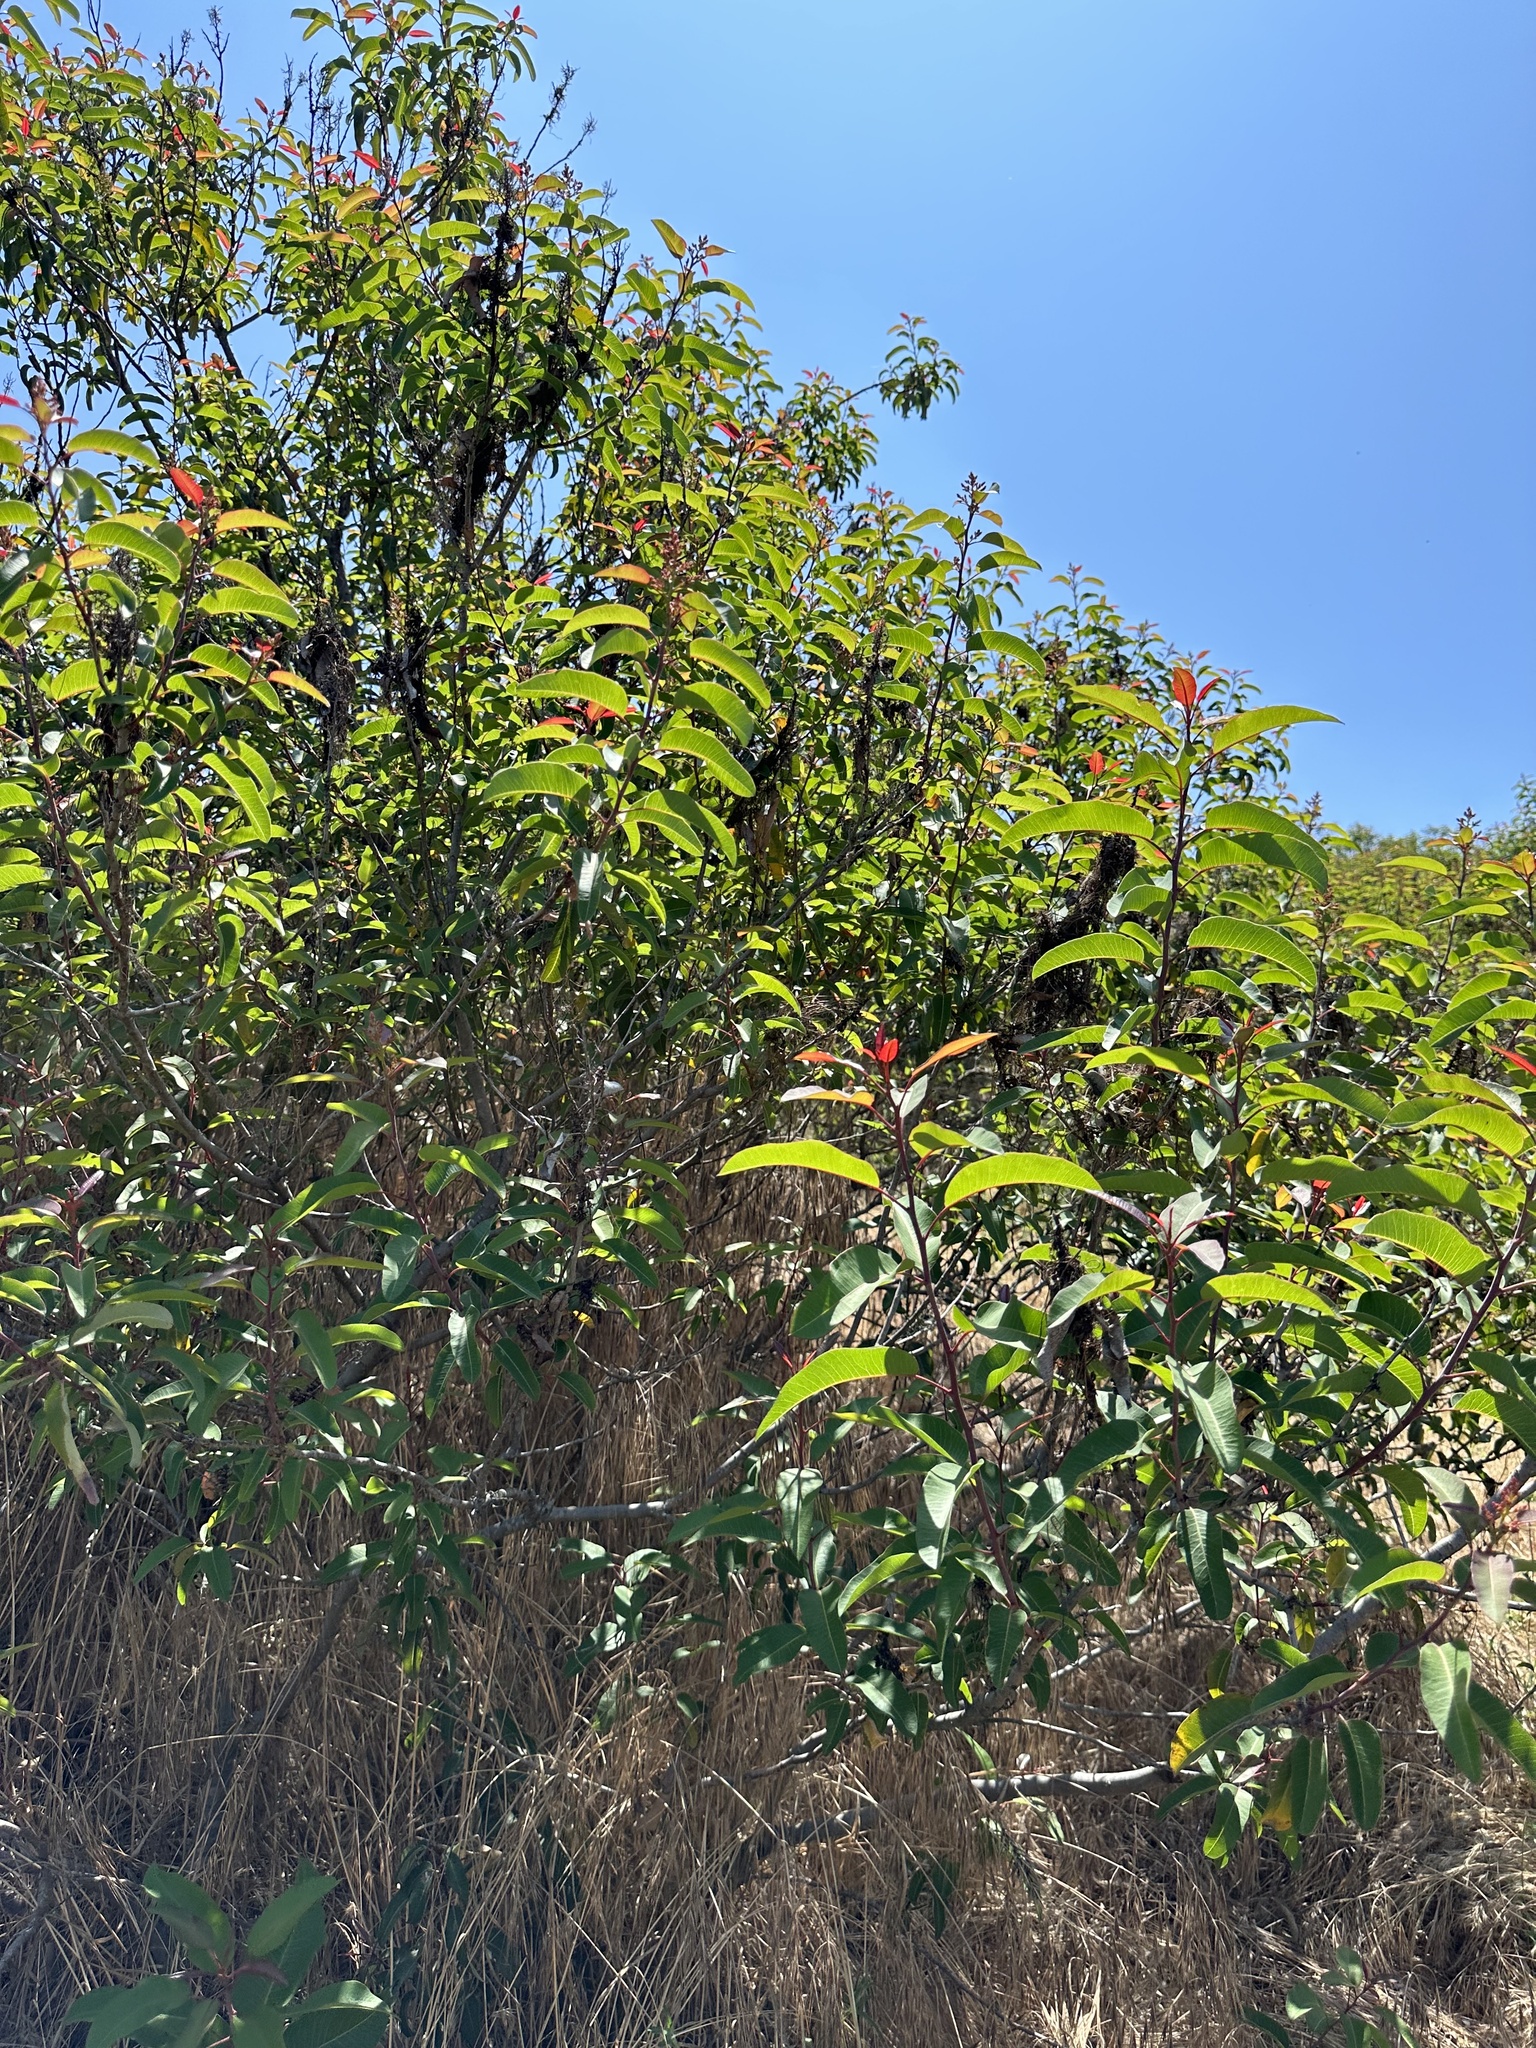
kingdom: Plantae
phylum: Tracheophyta
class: Magnoliopsida
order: Sapindales
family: Anacardiaceae
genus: Malosma
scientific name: Malosma laurina
